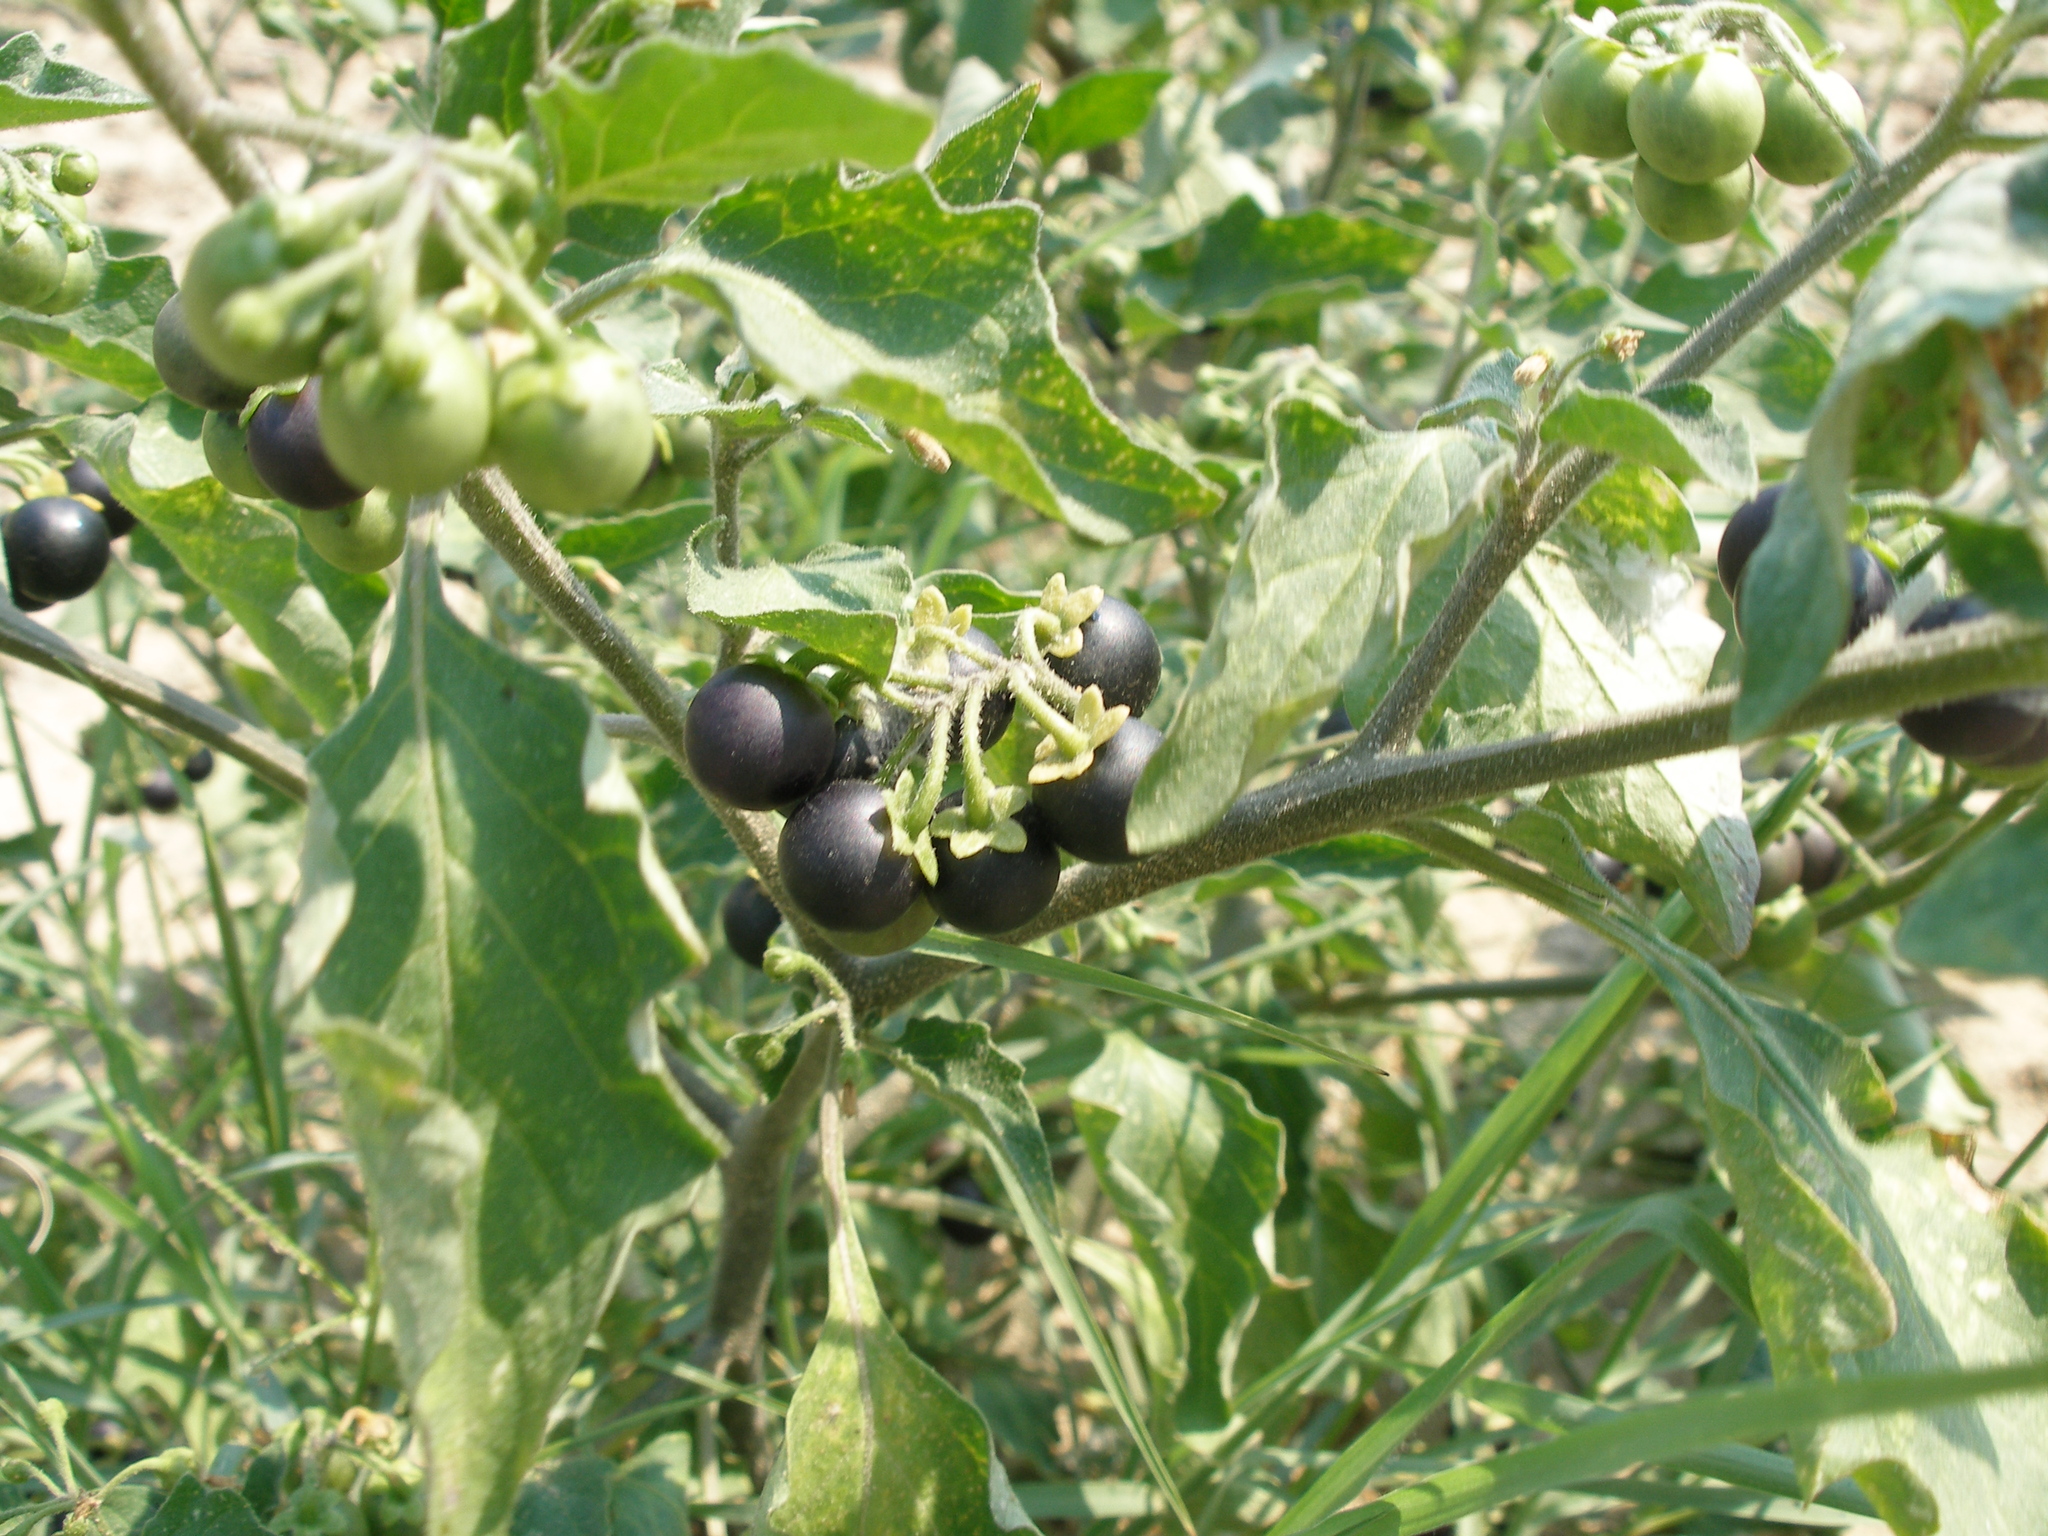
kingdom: Plantae
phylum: Tracheophyta
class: Magnoliopsida
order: Solanales
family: Solanaceae
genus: Solanum
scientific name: Solanum nigrum
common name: Black nightshade
